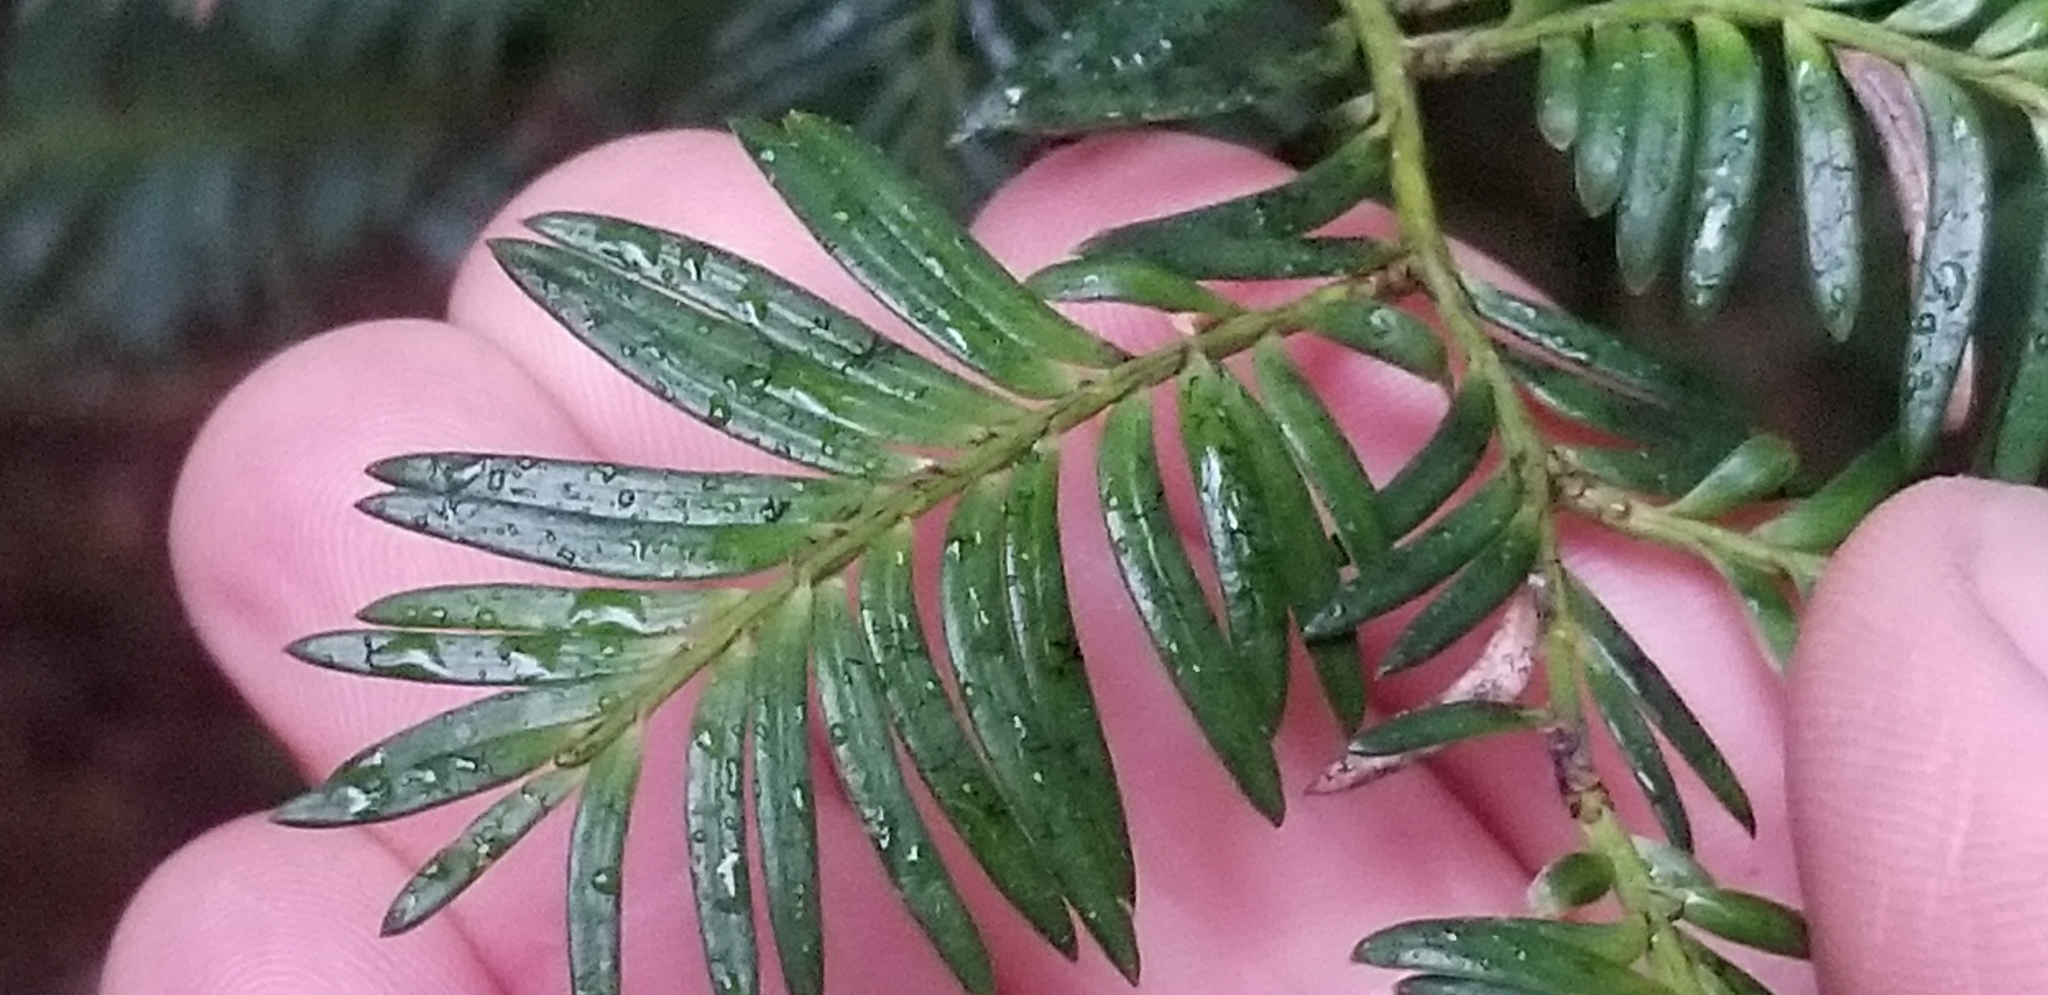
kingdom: Plantae
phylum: Tracheophyta
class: Pinopsida
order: Pinales
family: Podocarpaceae
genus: Prumnopitys
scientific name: Prumnopitys ferruginea
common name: Brown pine
